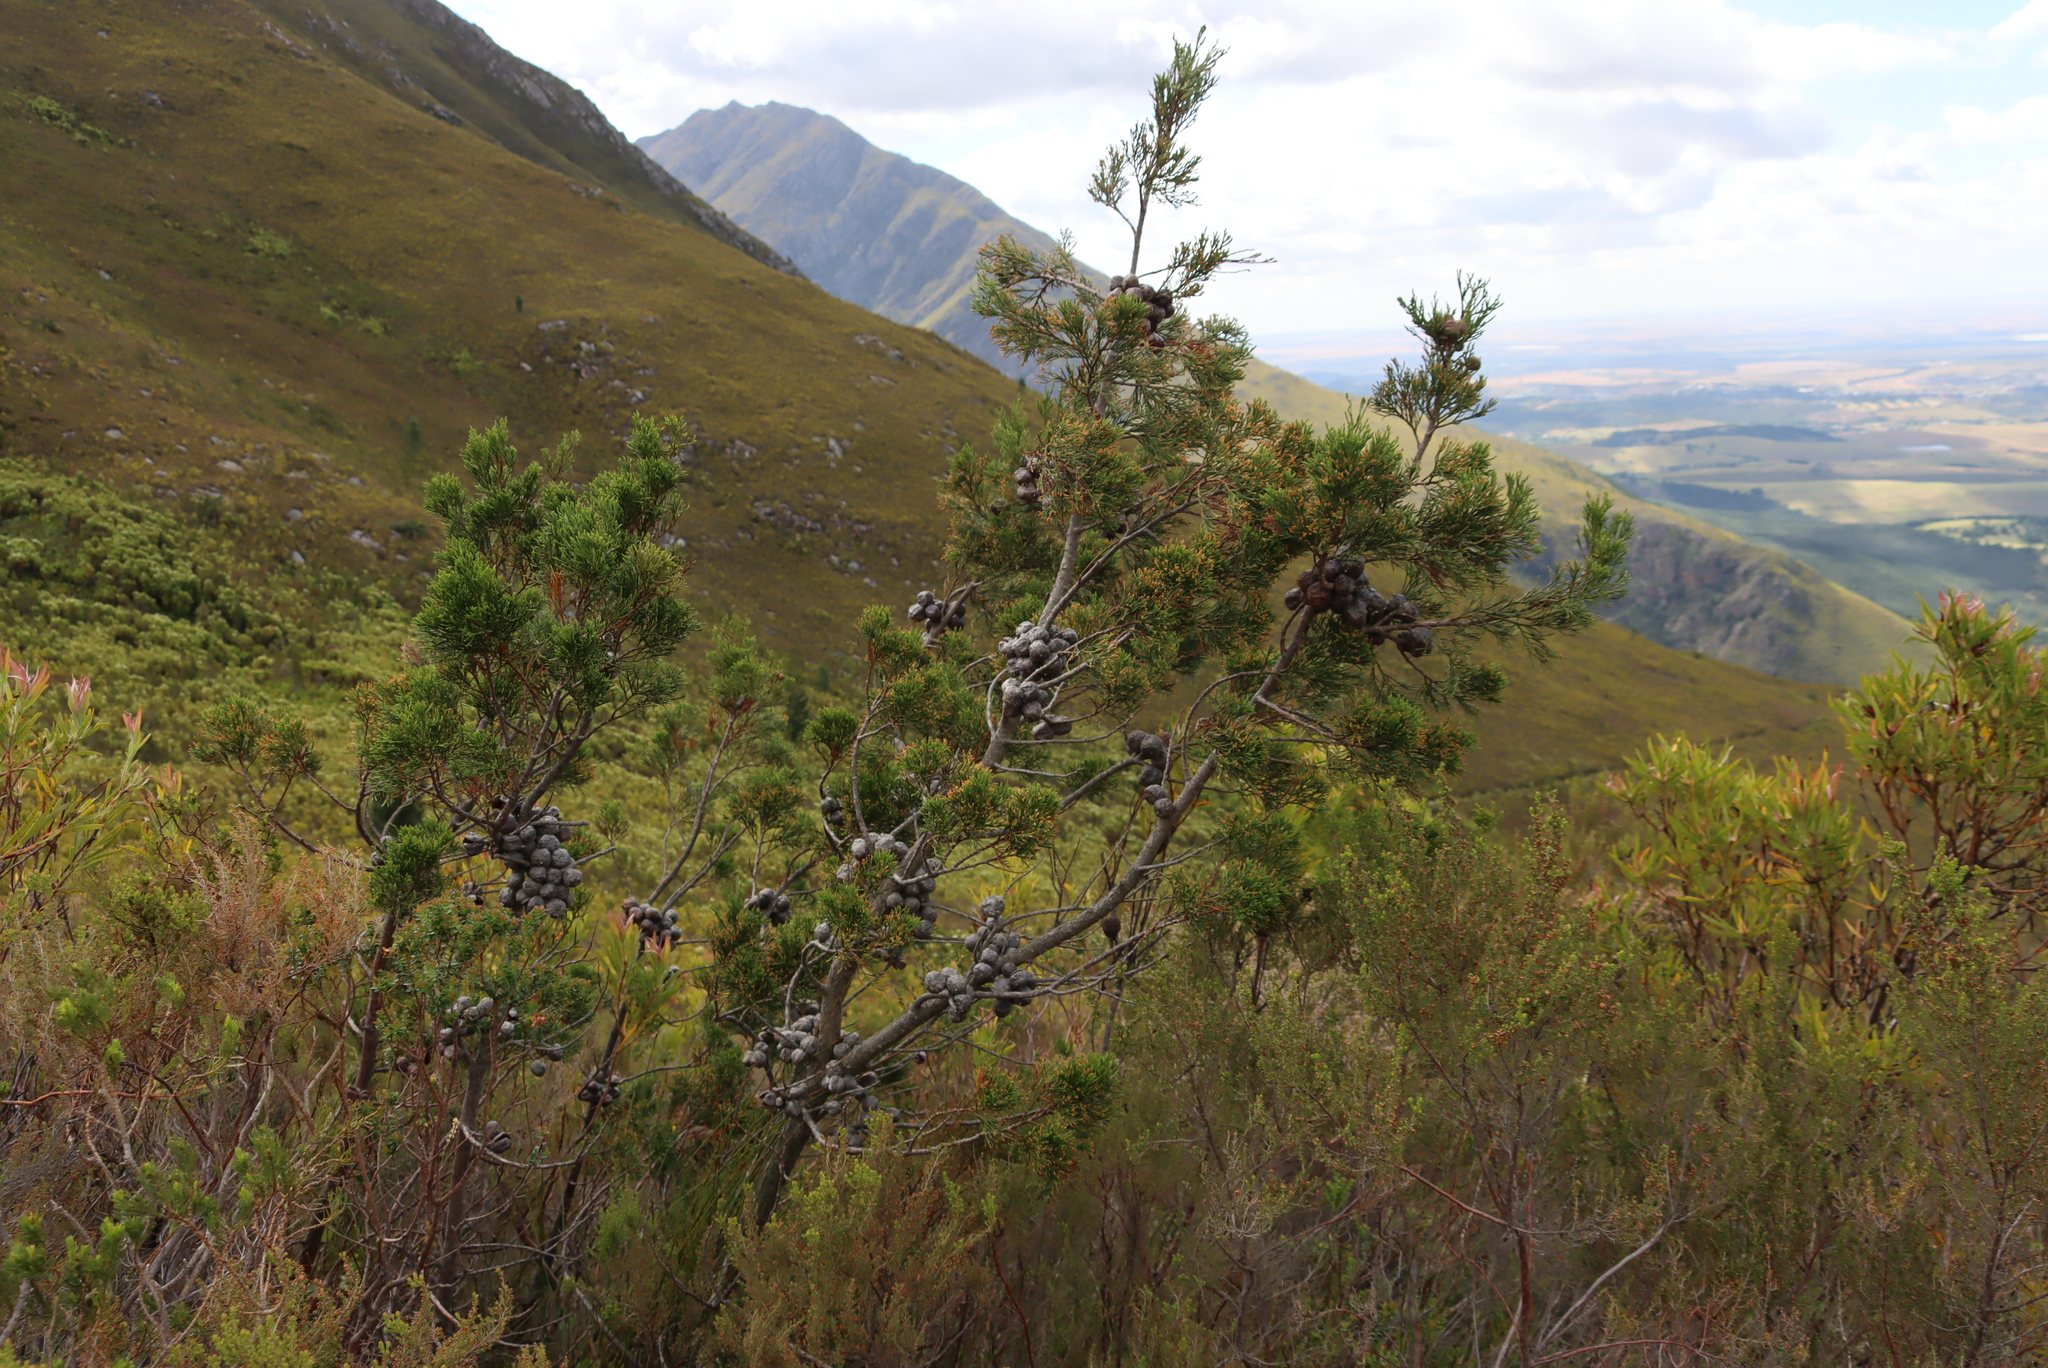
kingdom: Plantae
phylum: Tracheophyta
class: Pinopsida
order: Pinales
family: Cupressaceae
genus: Widdringtonia
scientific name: Widdringtonia nodiflora
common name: Cape cypress
